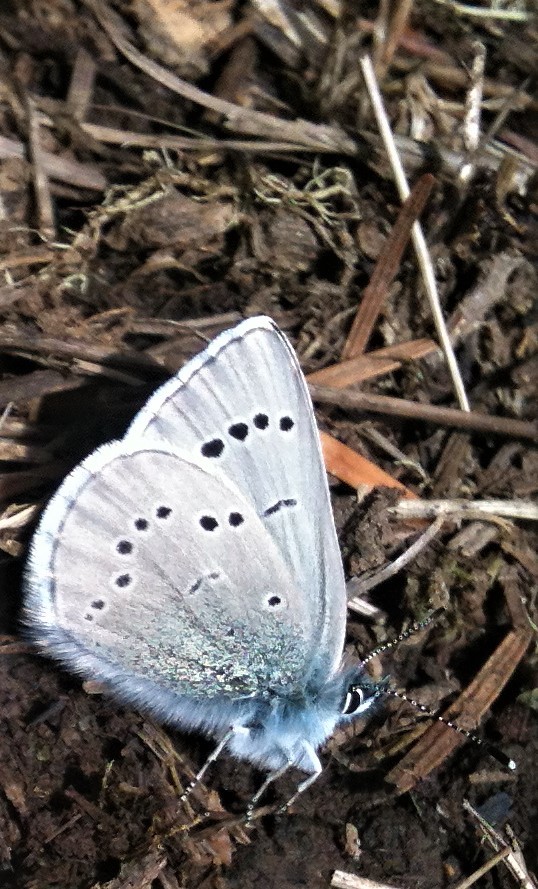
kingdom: Animalia
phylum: Arthropoda
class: Insecta
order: Lepidoptera
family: Lycaenidae
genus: Glaucopsyche
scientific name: Glaucopsyche lygdamus
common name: Silvery blue
